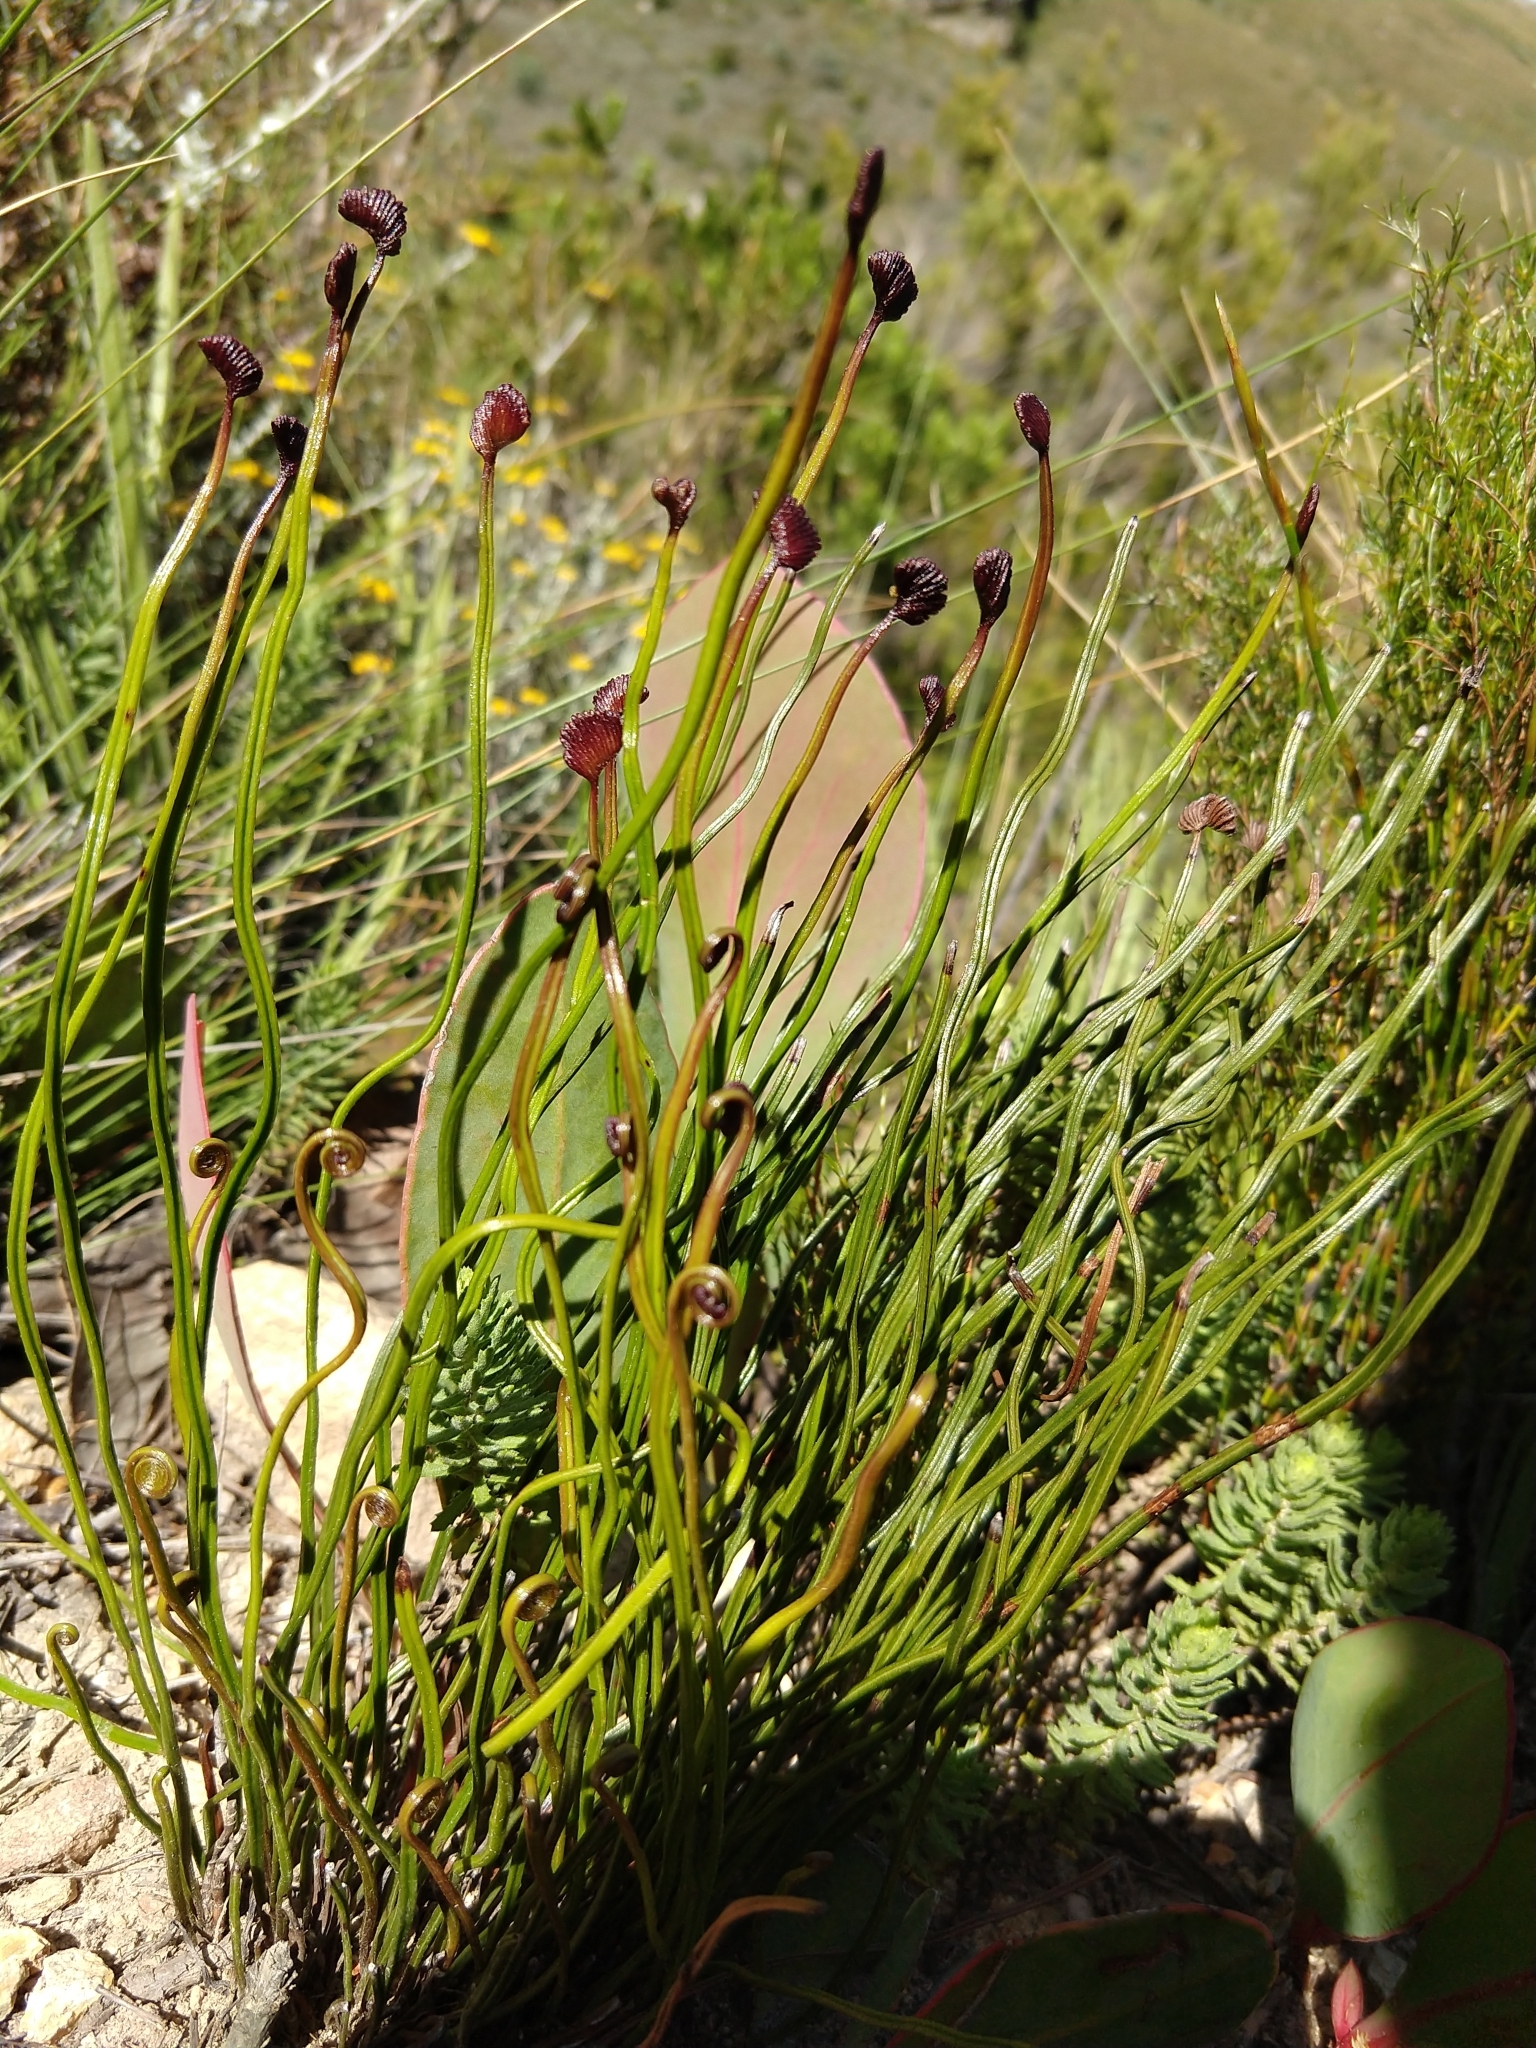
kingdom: Plantae
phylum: Tracheophyta
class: Polypodiopsida
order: Schizaeales
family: Schizaeaceae
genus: Schizaea
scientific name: Schizaea pectinata
